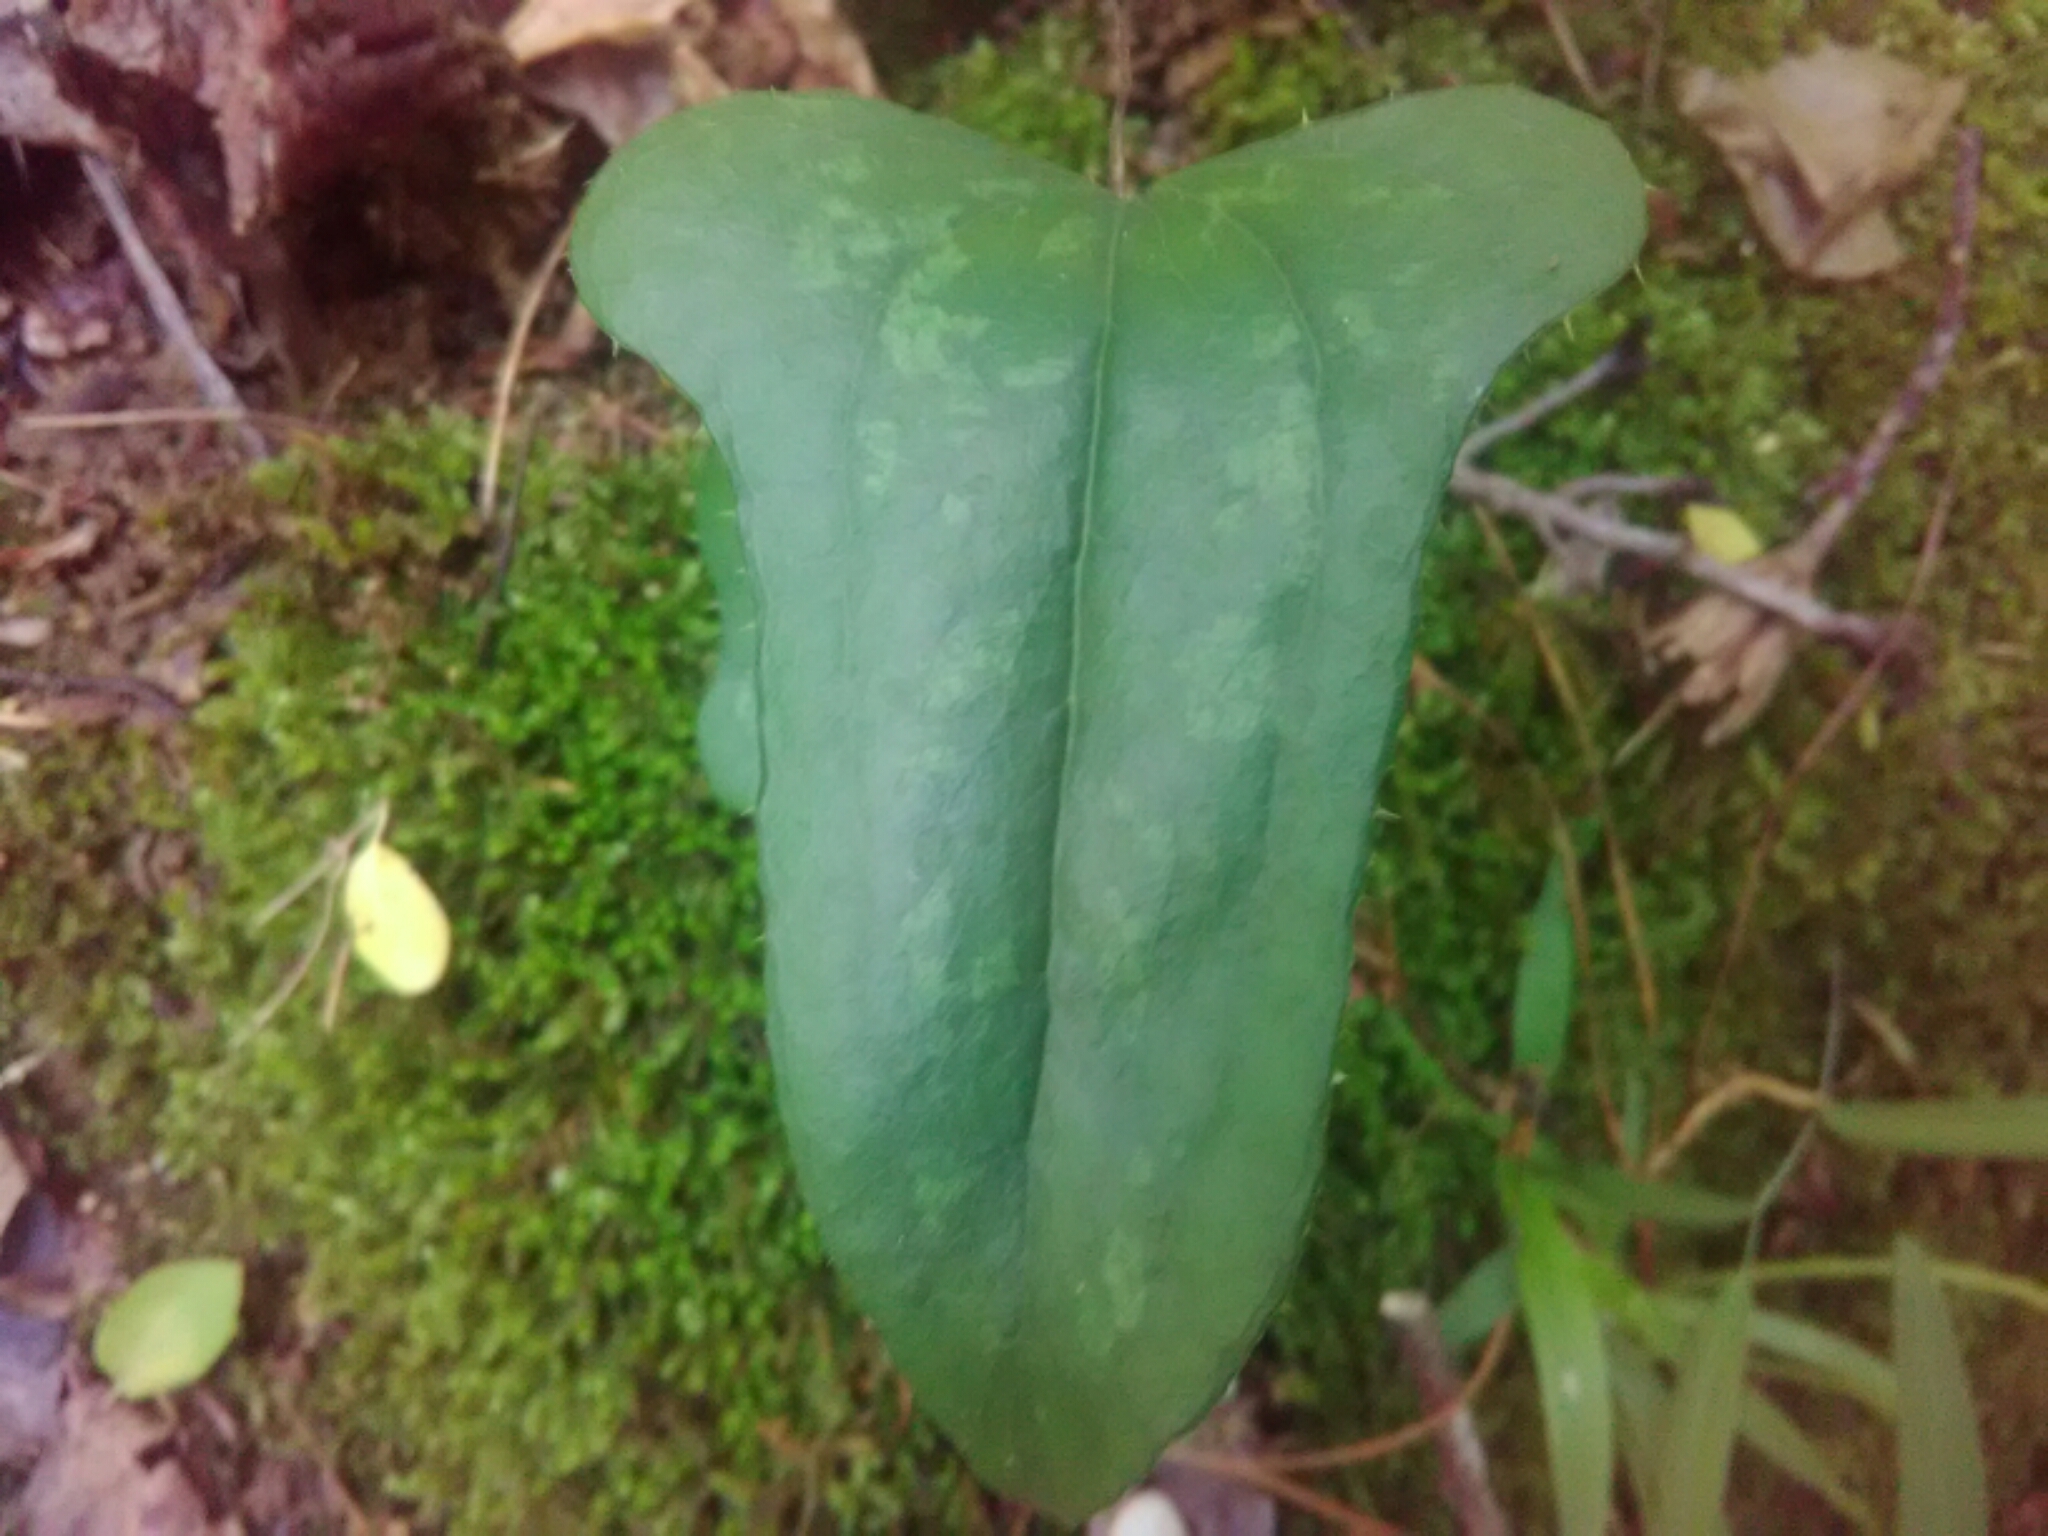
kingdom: Plantae
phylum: Tracheophyta
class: Liliopsida
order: Liliales
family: Smilacaceae
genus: Smilax
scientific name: Smilax bona-nox
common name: Catbrier
